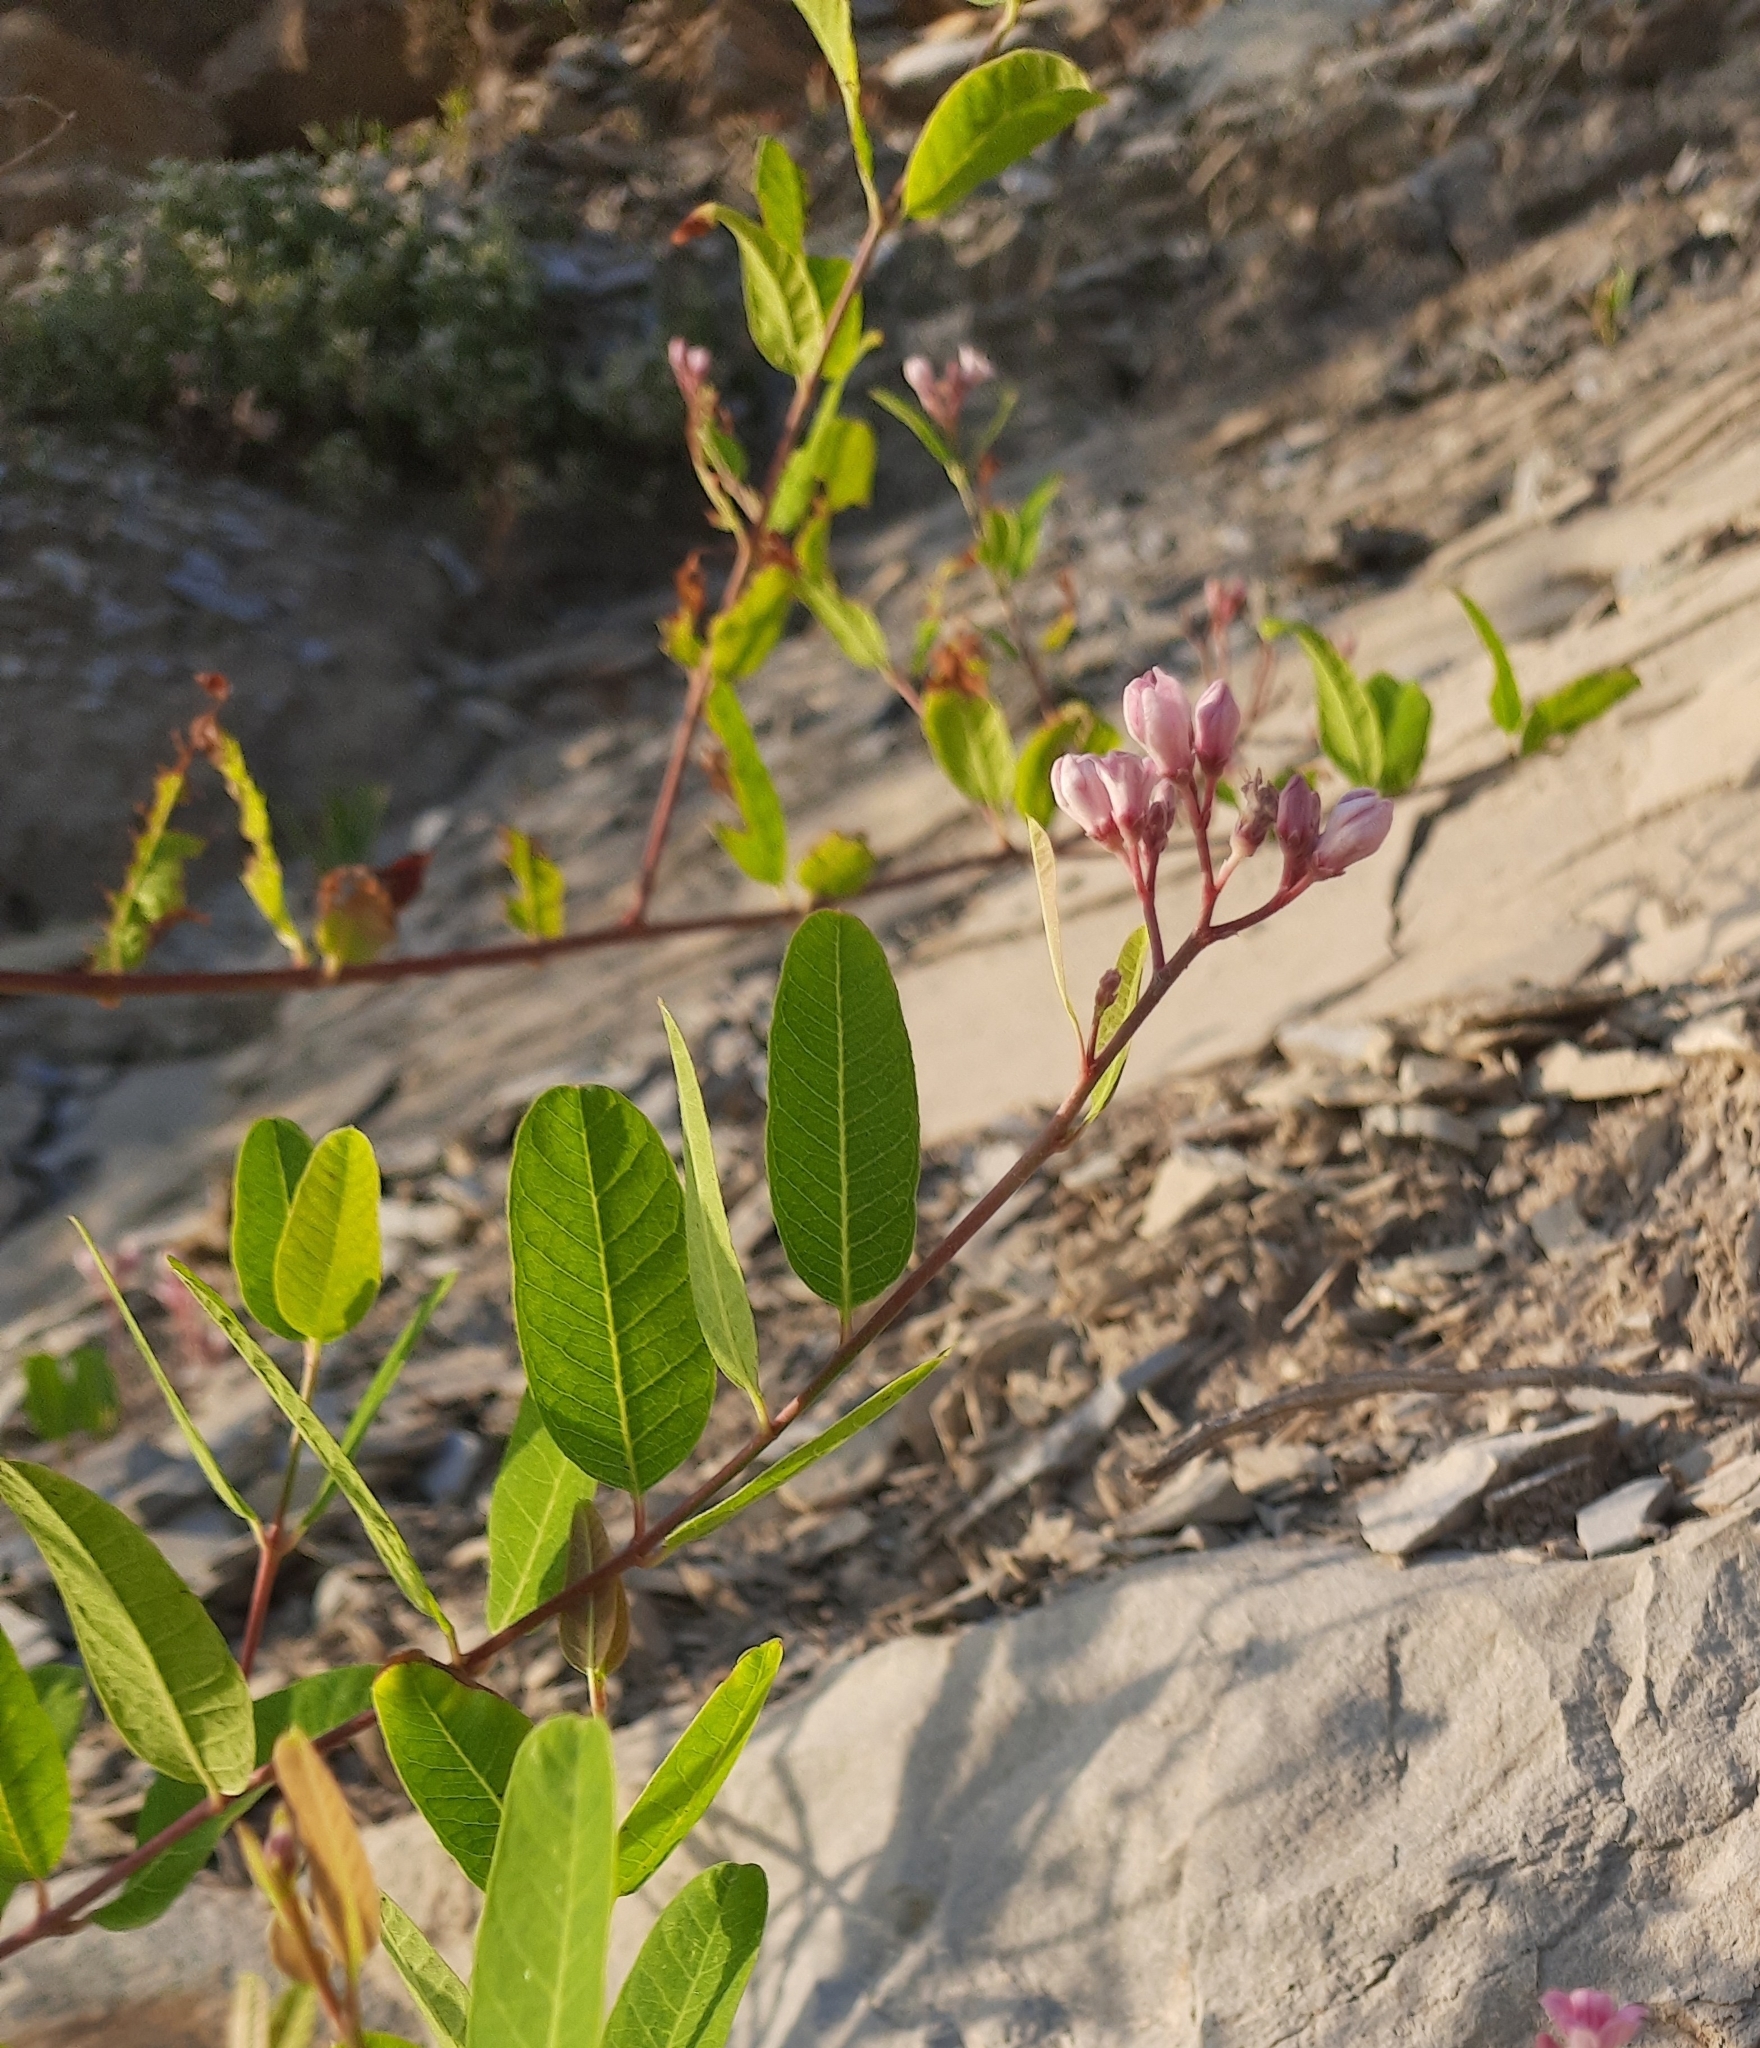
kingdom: Plantae
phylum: Tracheophyta
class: Magnoliopsida
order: Gentianales
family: Apocynaceae
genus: Poacynum
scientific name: Poacynum venetum
